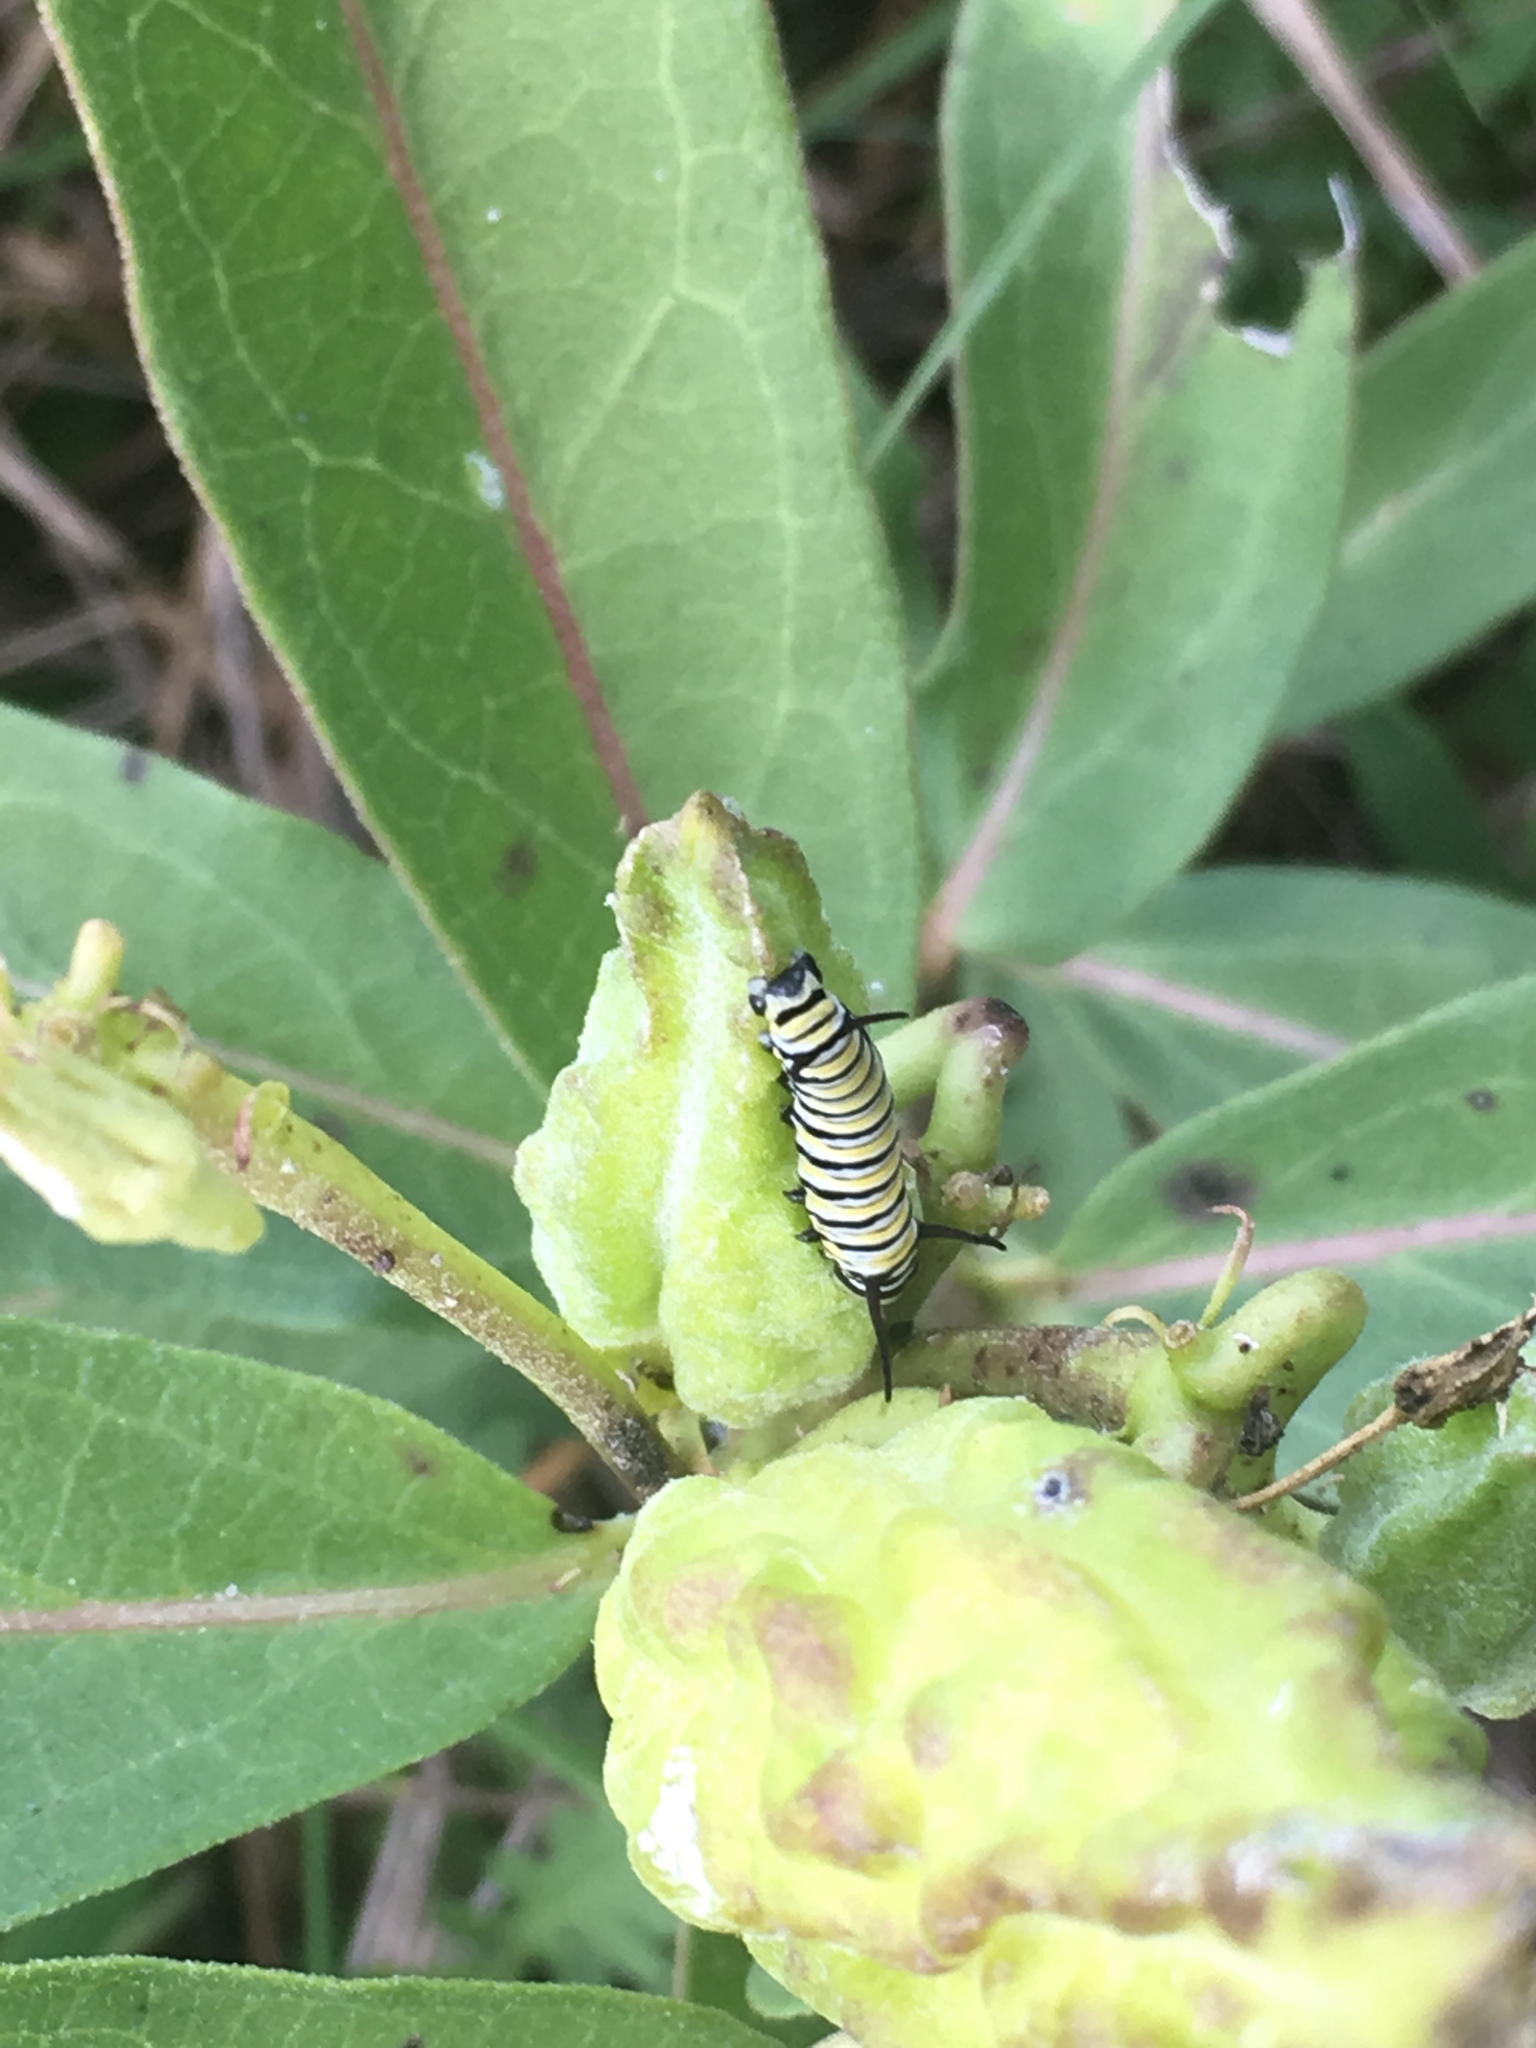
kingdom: Plantae
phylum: Tracheophyta
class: Magnoliopsida
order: Gentianales
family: Apocynaceae
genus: Asclepias
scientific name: Asclepias viridis
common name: Antelope-horns
